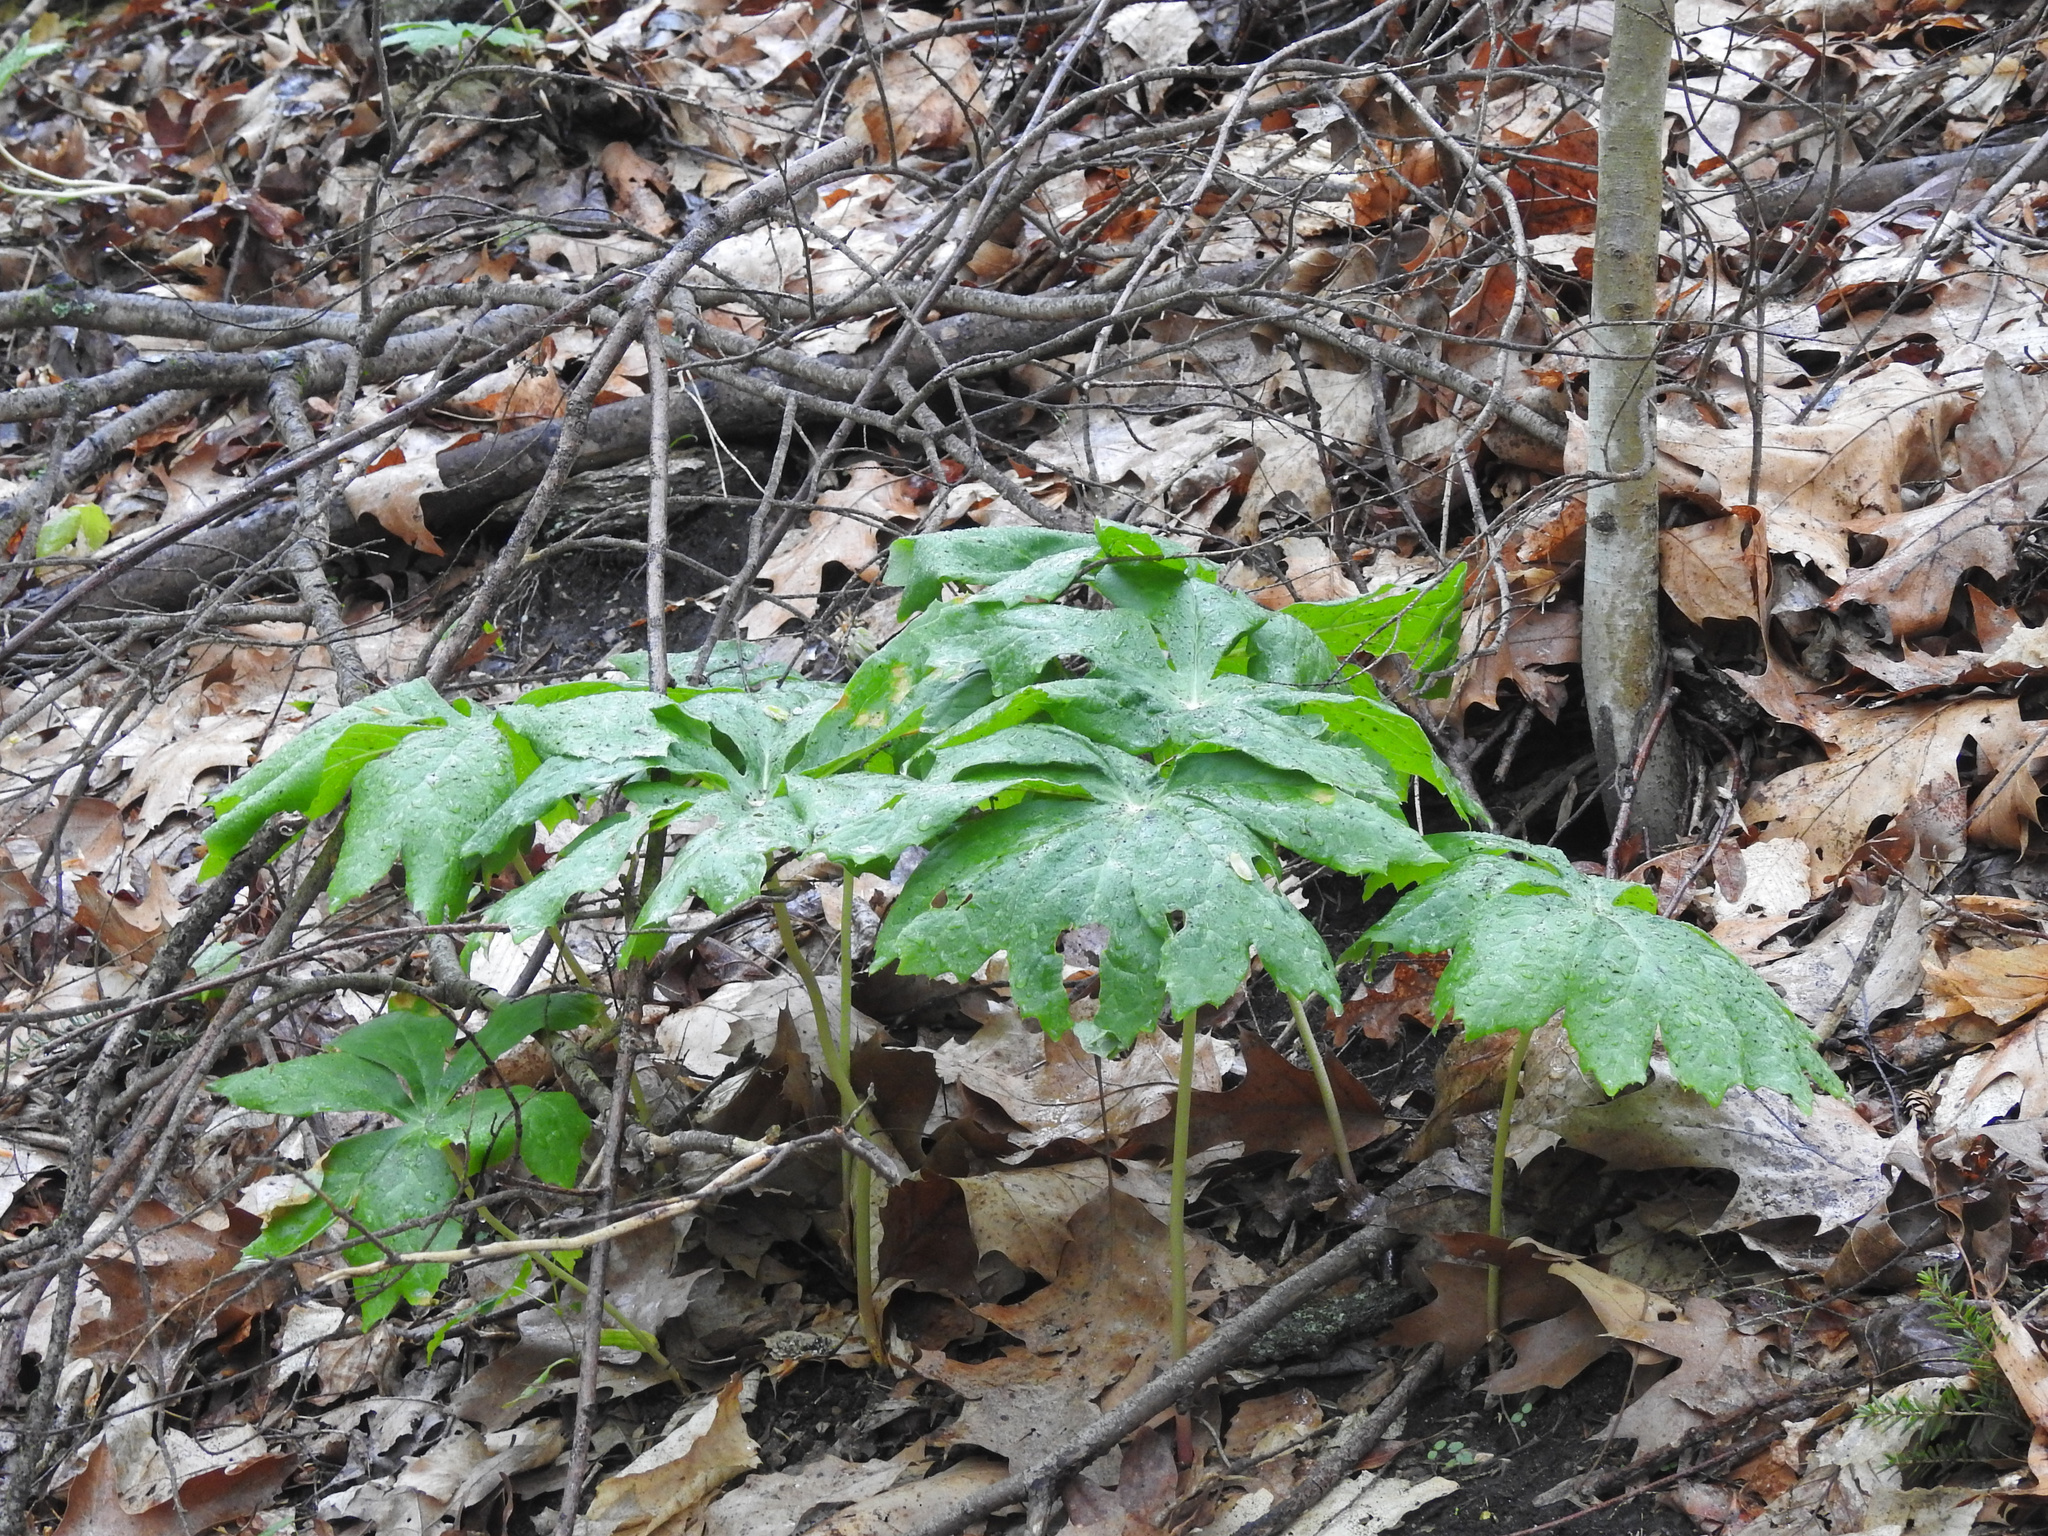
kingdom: Plantae
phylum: Tracheophyta
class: Magnoliopsida
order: Ranunculales
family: Berberidaceae
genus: Podophyllum
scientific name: Podophyllum peltatum
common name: Wild mandrake
